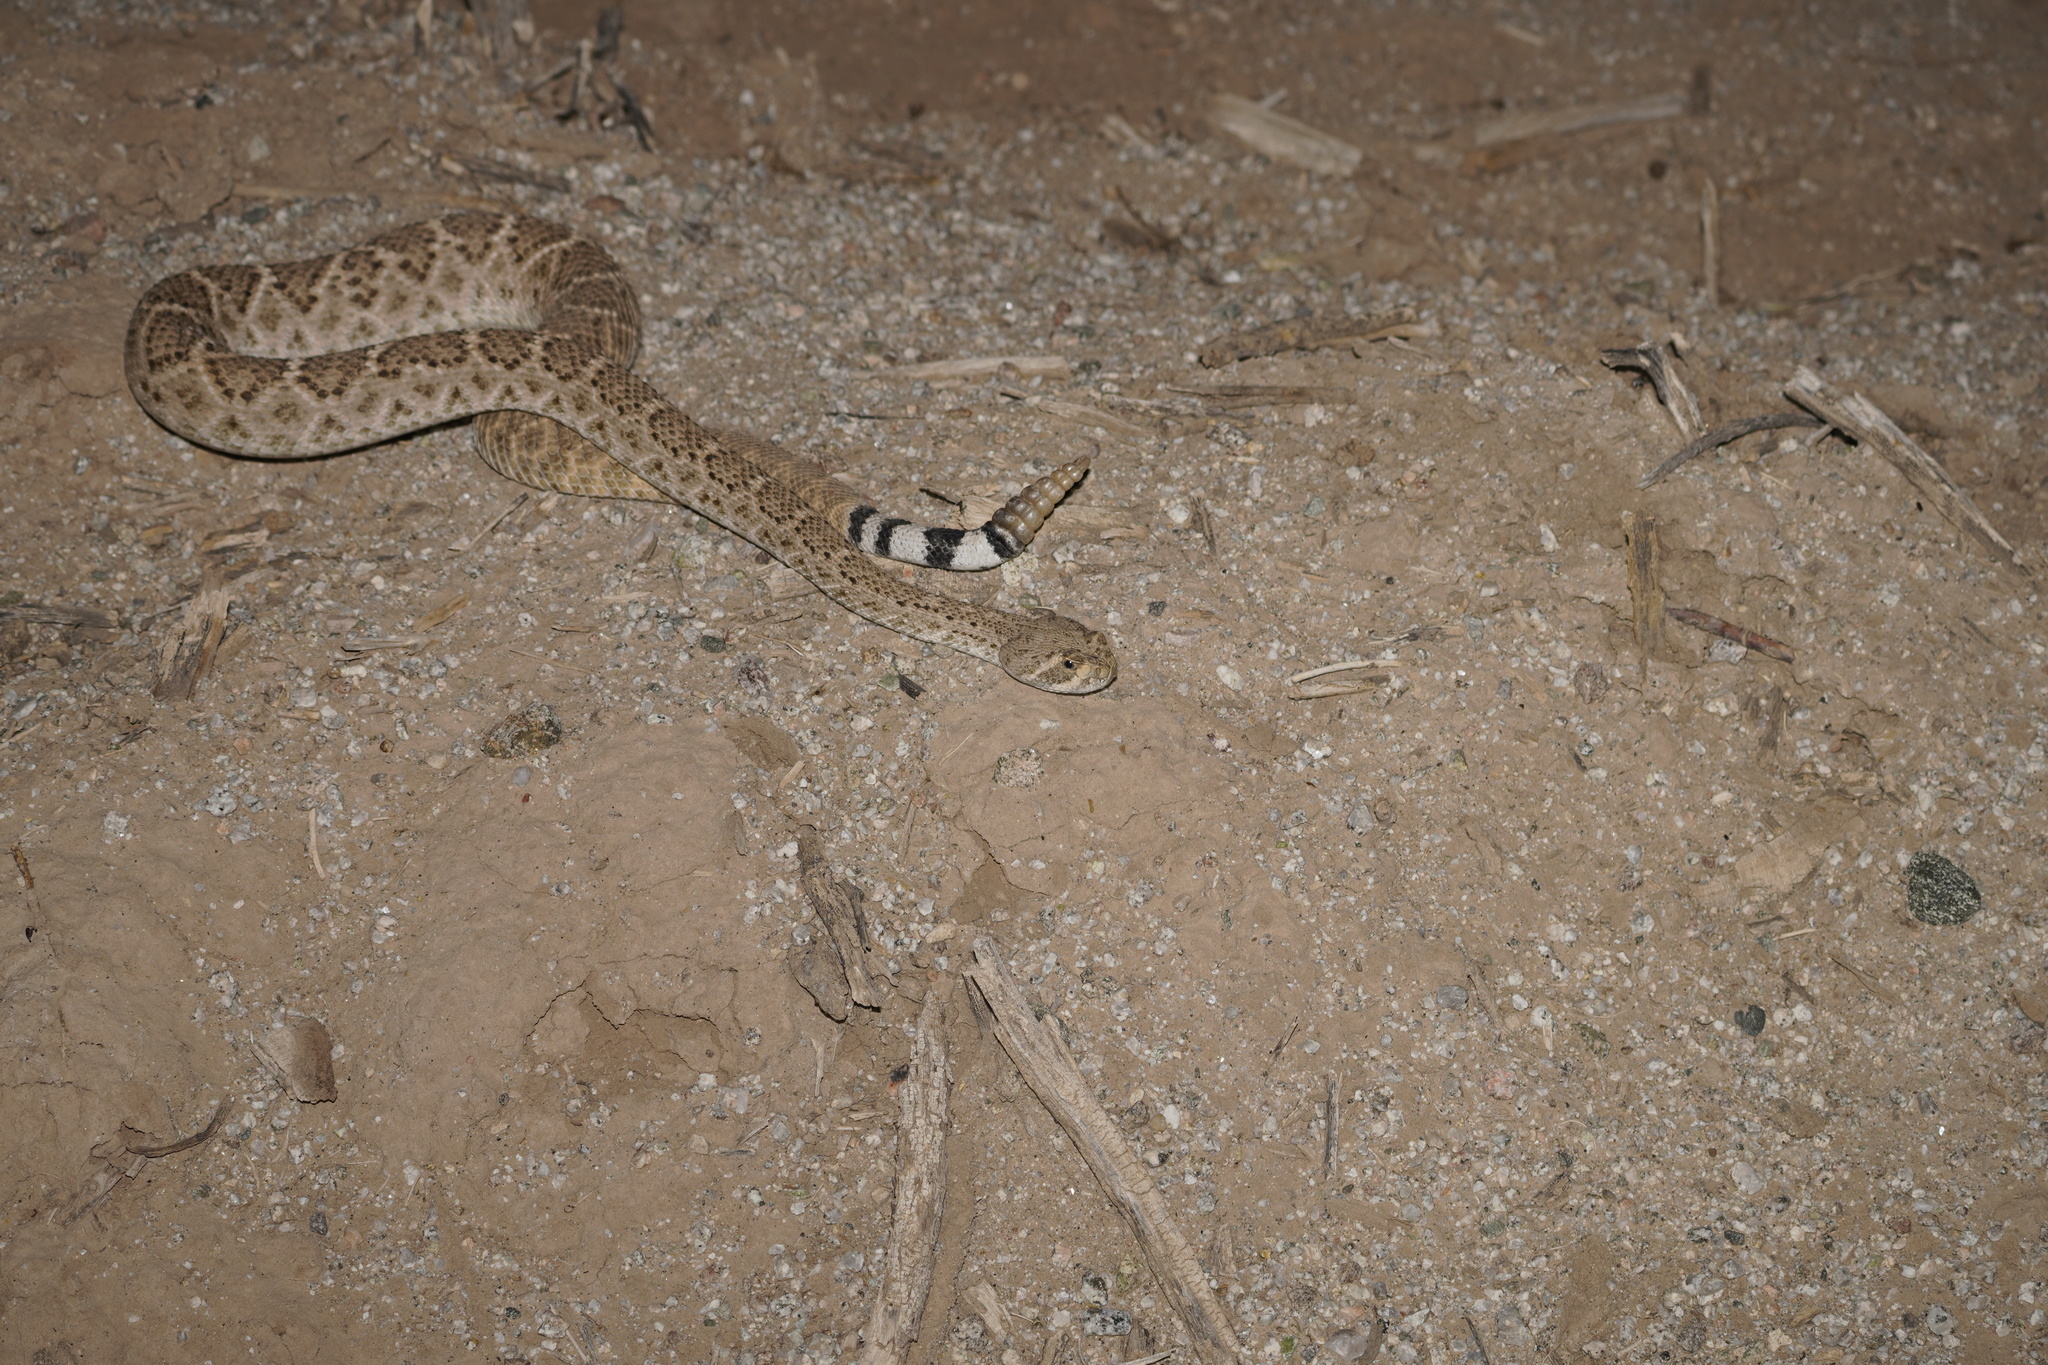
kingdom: Animalia
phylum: Chordata
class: Squamata
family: Viperidae
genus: Crotalus
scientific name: Crotalus atrox
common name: Western diamond-backed rattlesnake
